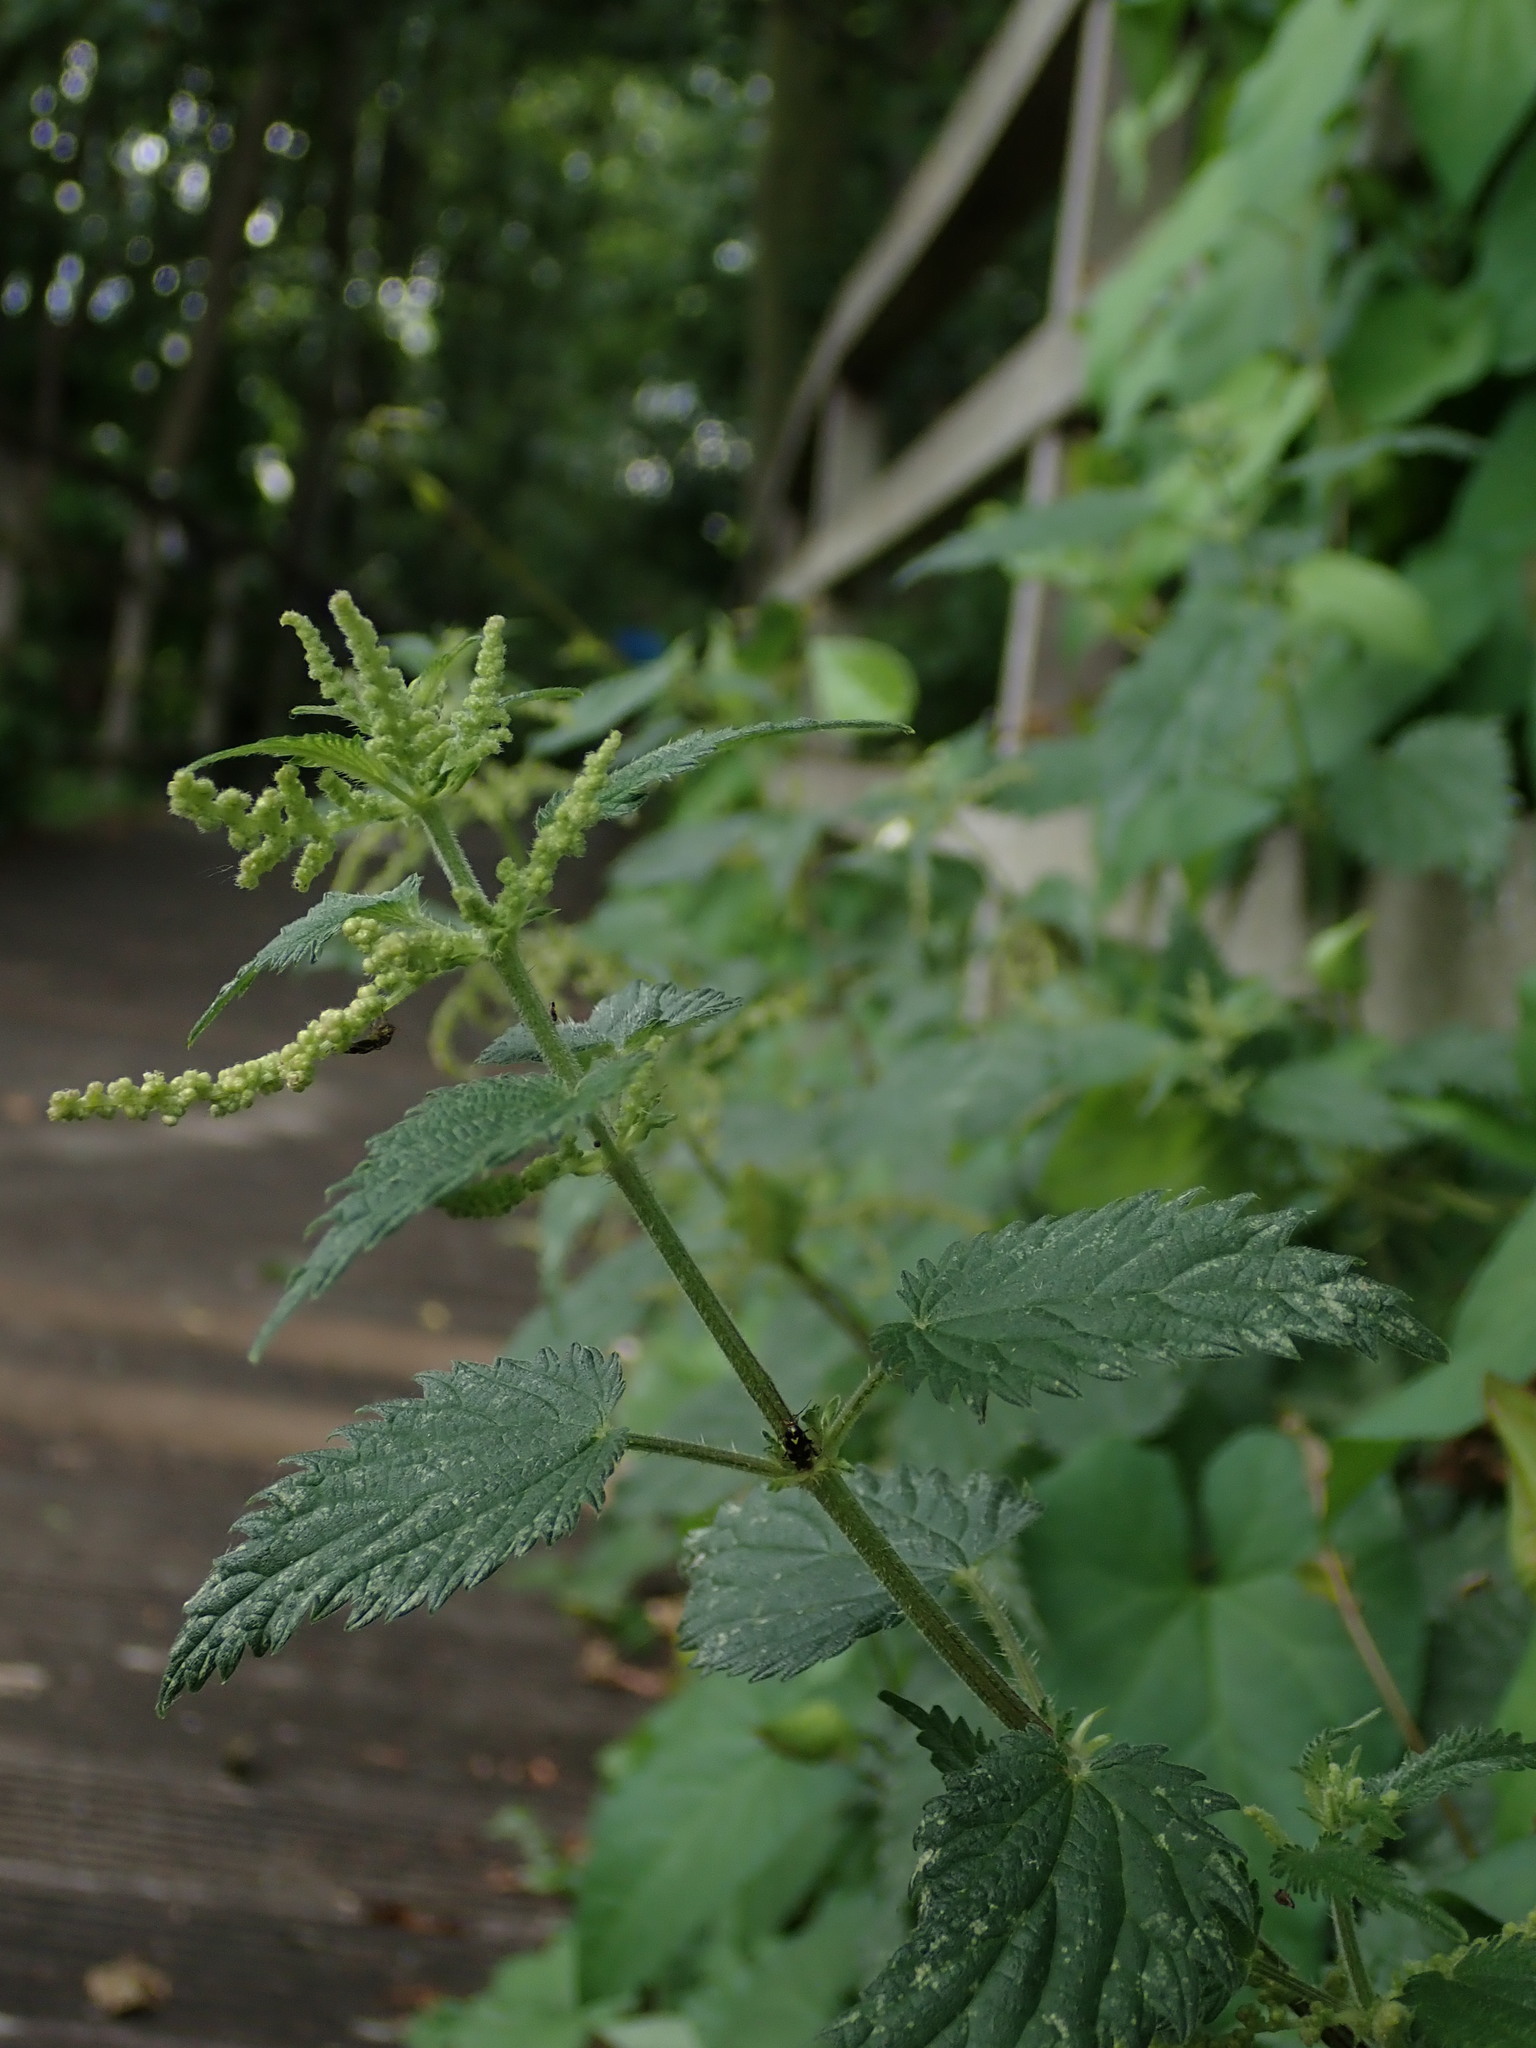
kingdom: Plantae
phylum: Tracheophyta
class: Magnoliopsida
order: Rosales
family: Urticaceae
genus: Urtica
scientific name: Urtica dioica
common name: Common nettle
